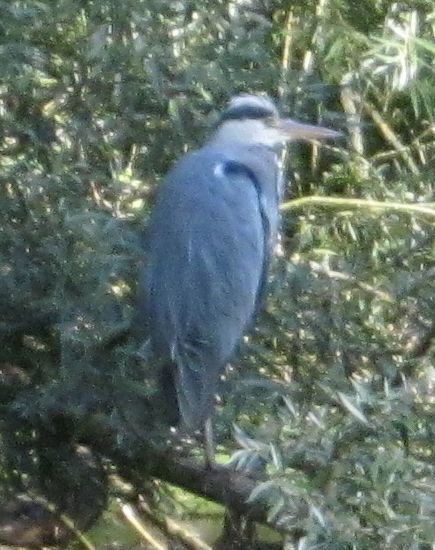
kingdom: Animalia
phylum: Chordata
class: Aves
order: Pelecaniformes
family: Ardeidae
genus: Ardea
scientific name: Ardea cinerea
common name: Grey heron
